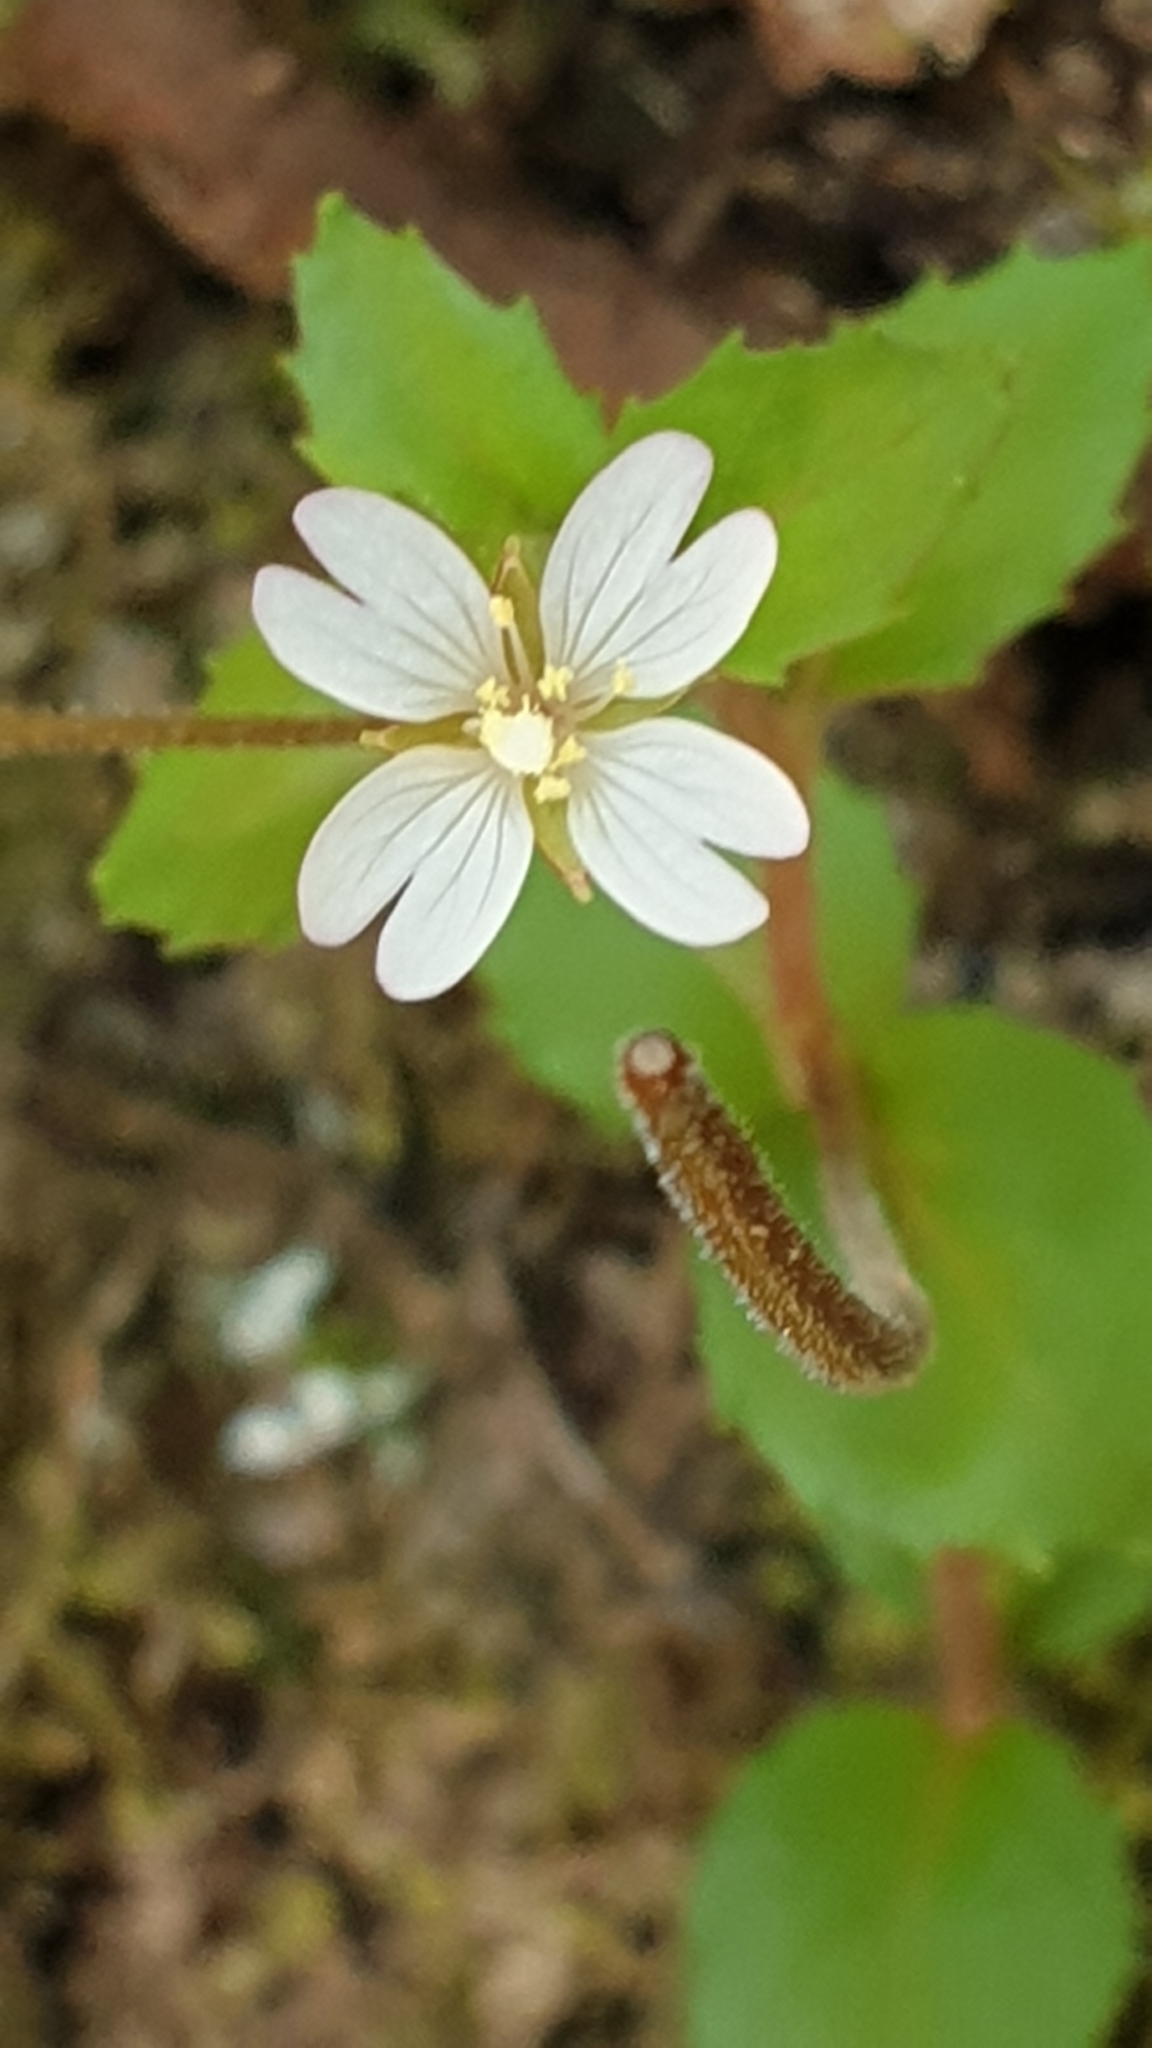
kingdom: Plantae
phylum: Tracheophyta
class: Magnoliopsida
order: Myrtales
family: Onagraceae
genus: Epilobium
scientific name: Epilobium rotundifolium
